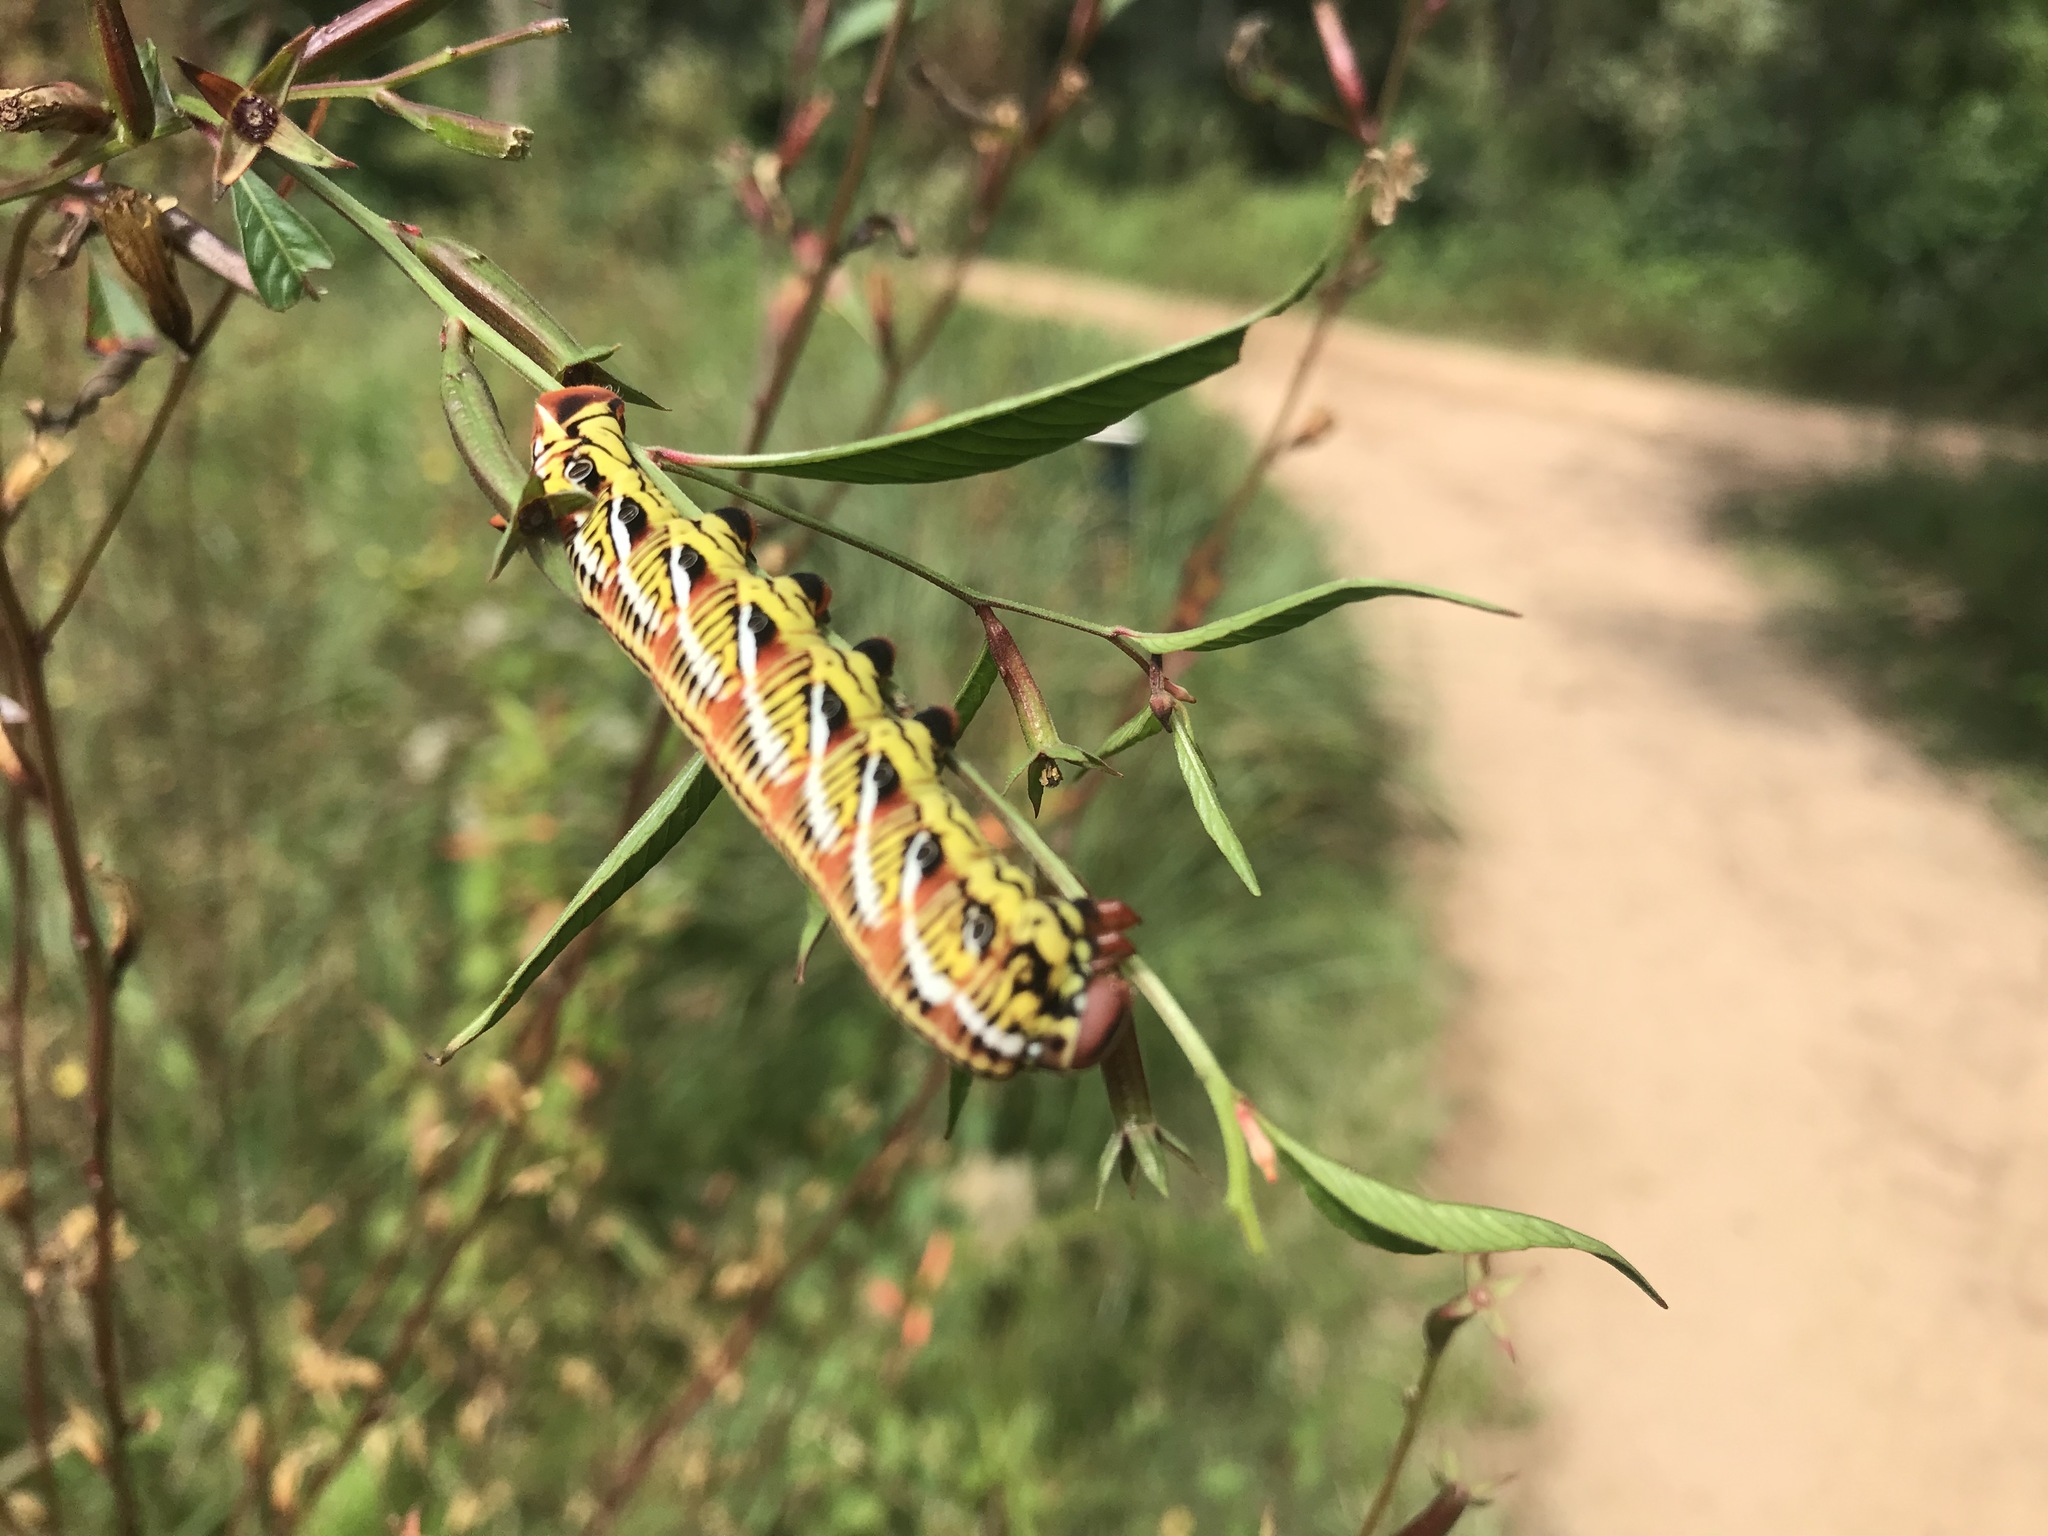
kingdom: Animalia
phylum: Arthropoda
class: Insecta
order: Lepidoptera
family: Sphingidae
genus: Eumorpha
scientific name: Eumorpha fasciatus
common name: Banded sphinx
